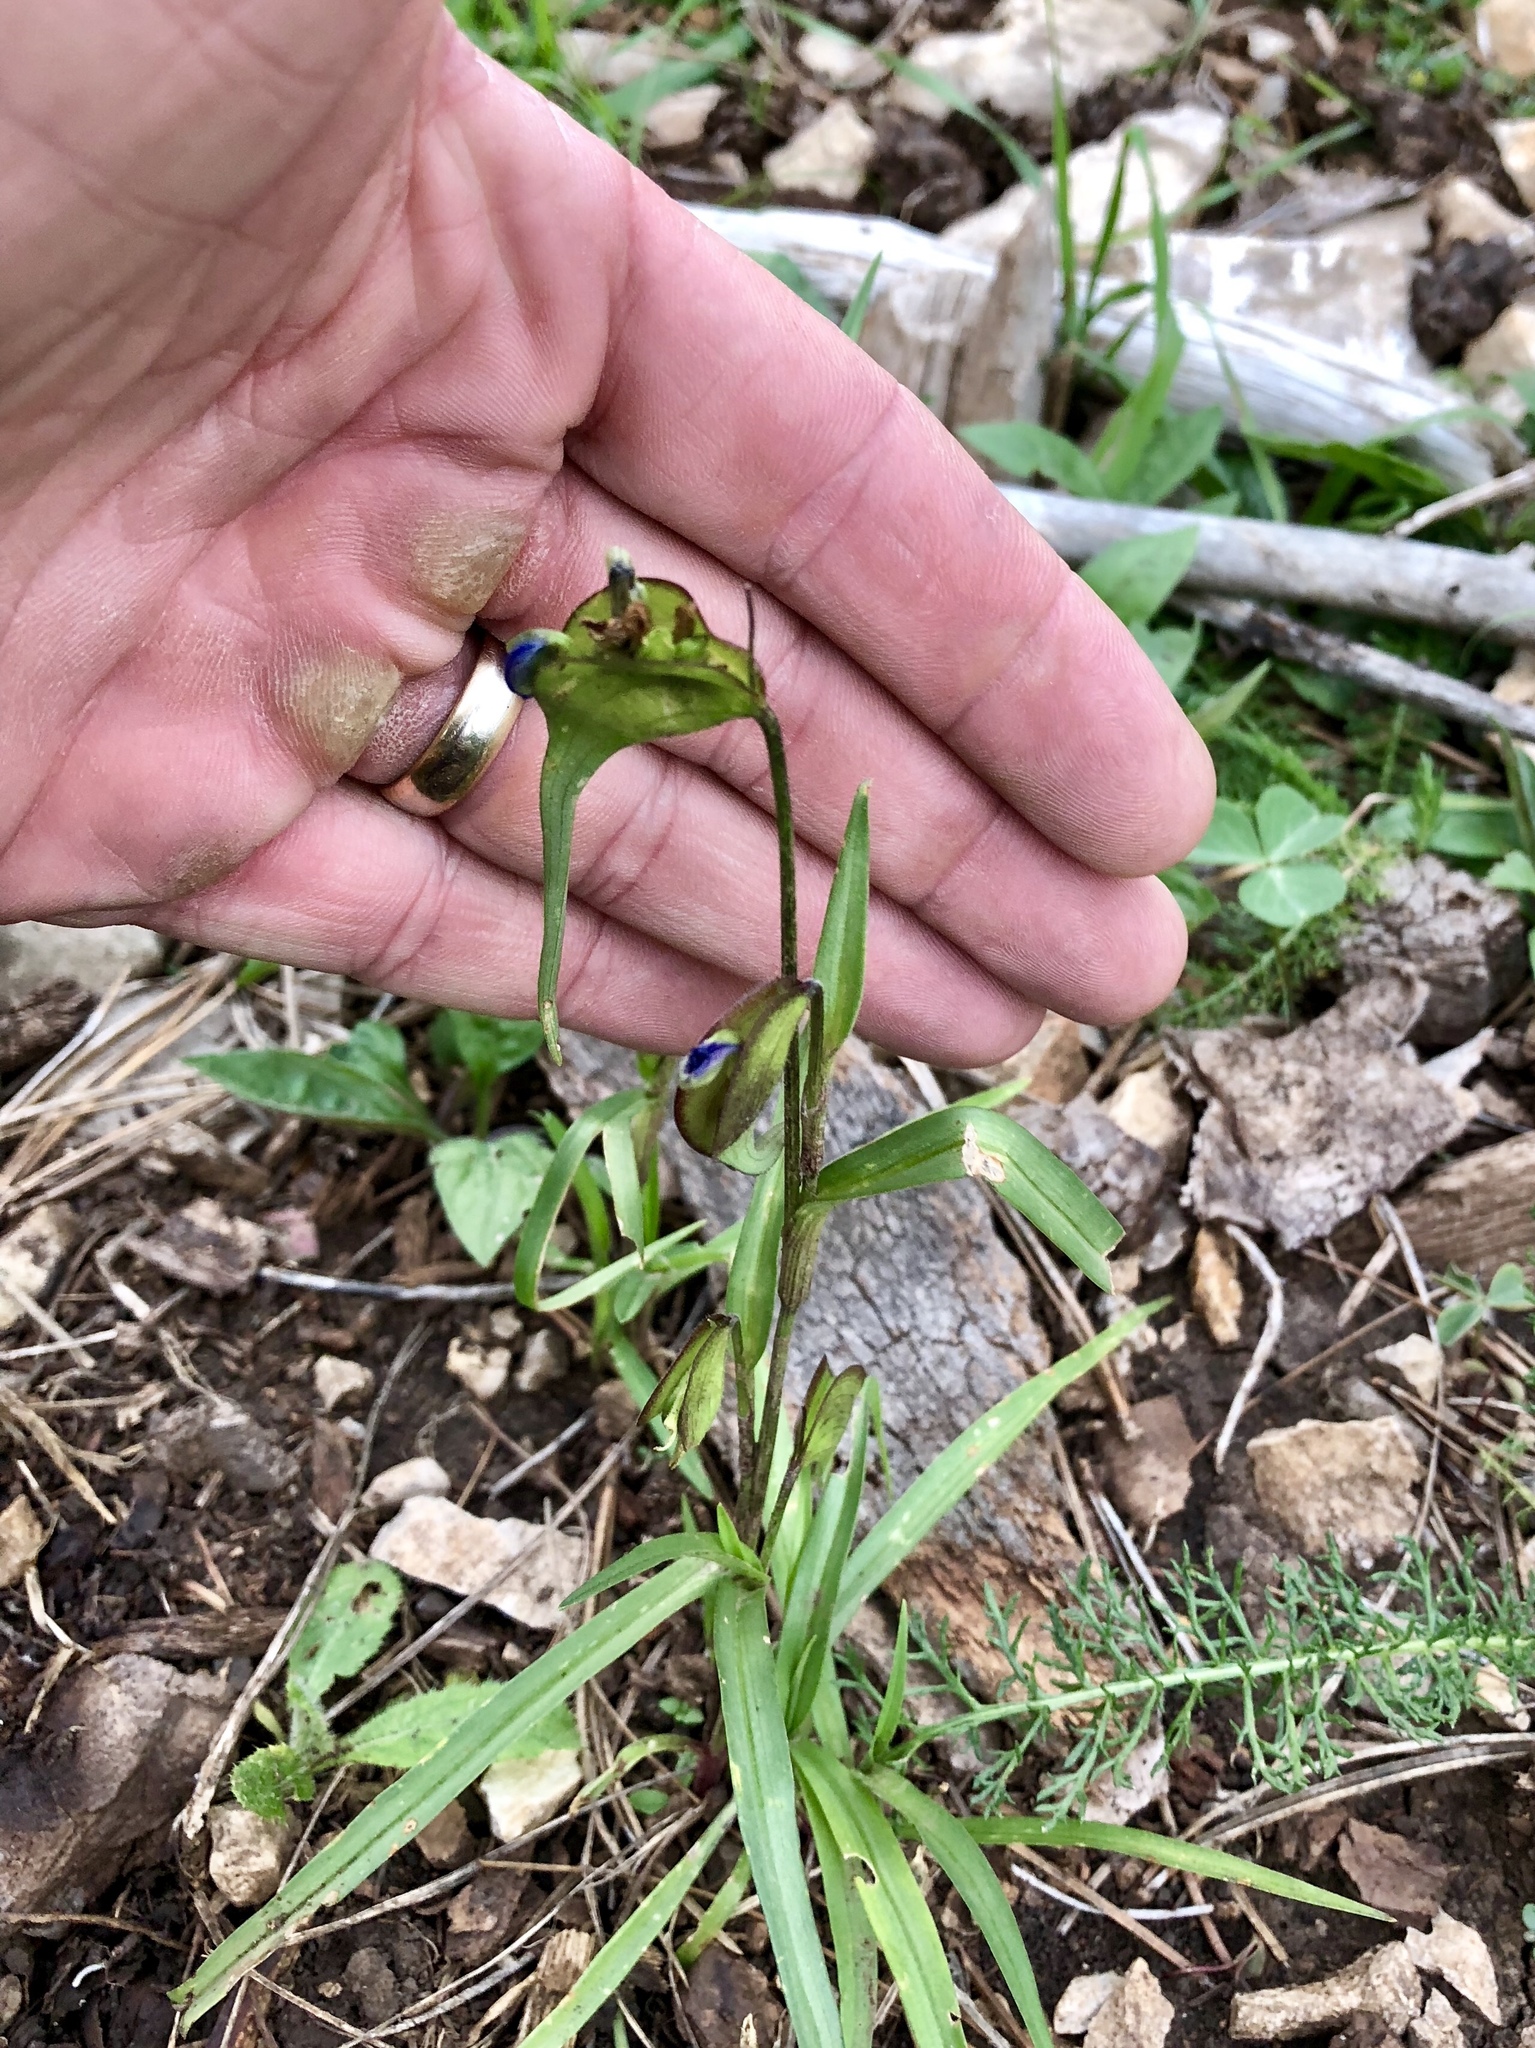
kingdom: Plantae
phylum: Tracheophyta
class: Liliopsida
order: Commelinales
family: Commelinaceae
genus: Commelina
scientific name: Commelina dianthifolia
